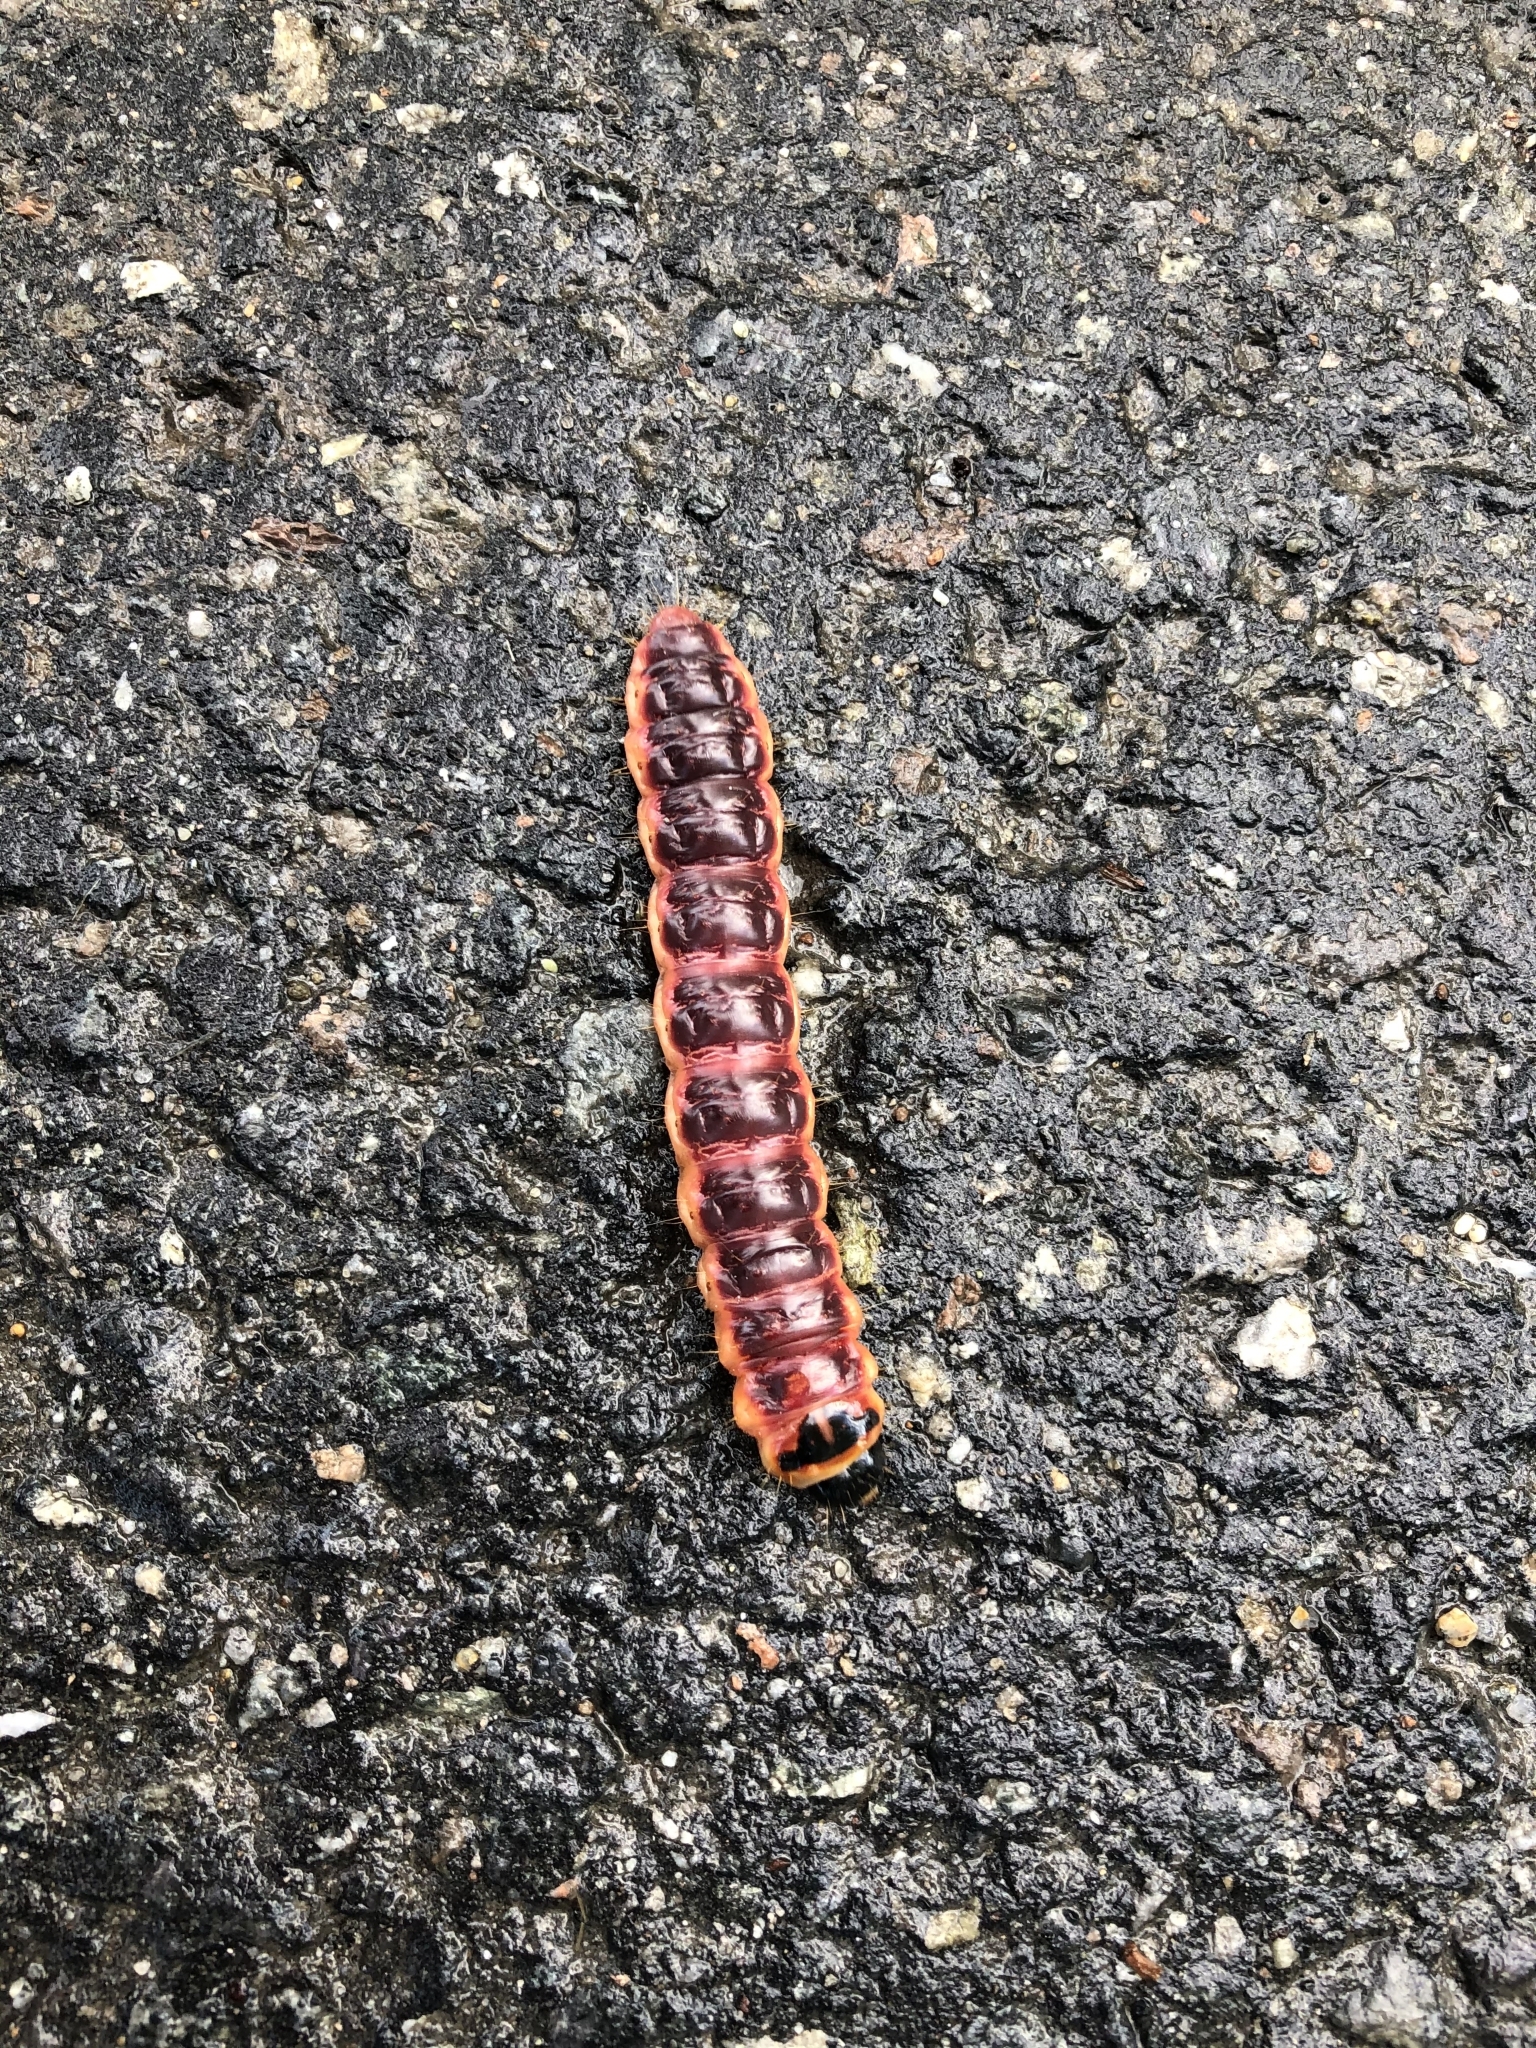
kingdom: Animalia
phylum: Arthropoda
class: Insecta
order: Lepidoptera
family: Cossidae
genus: Cossus
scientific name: Cossus cossus
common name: Goat moth
